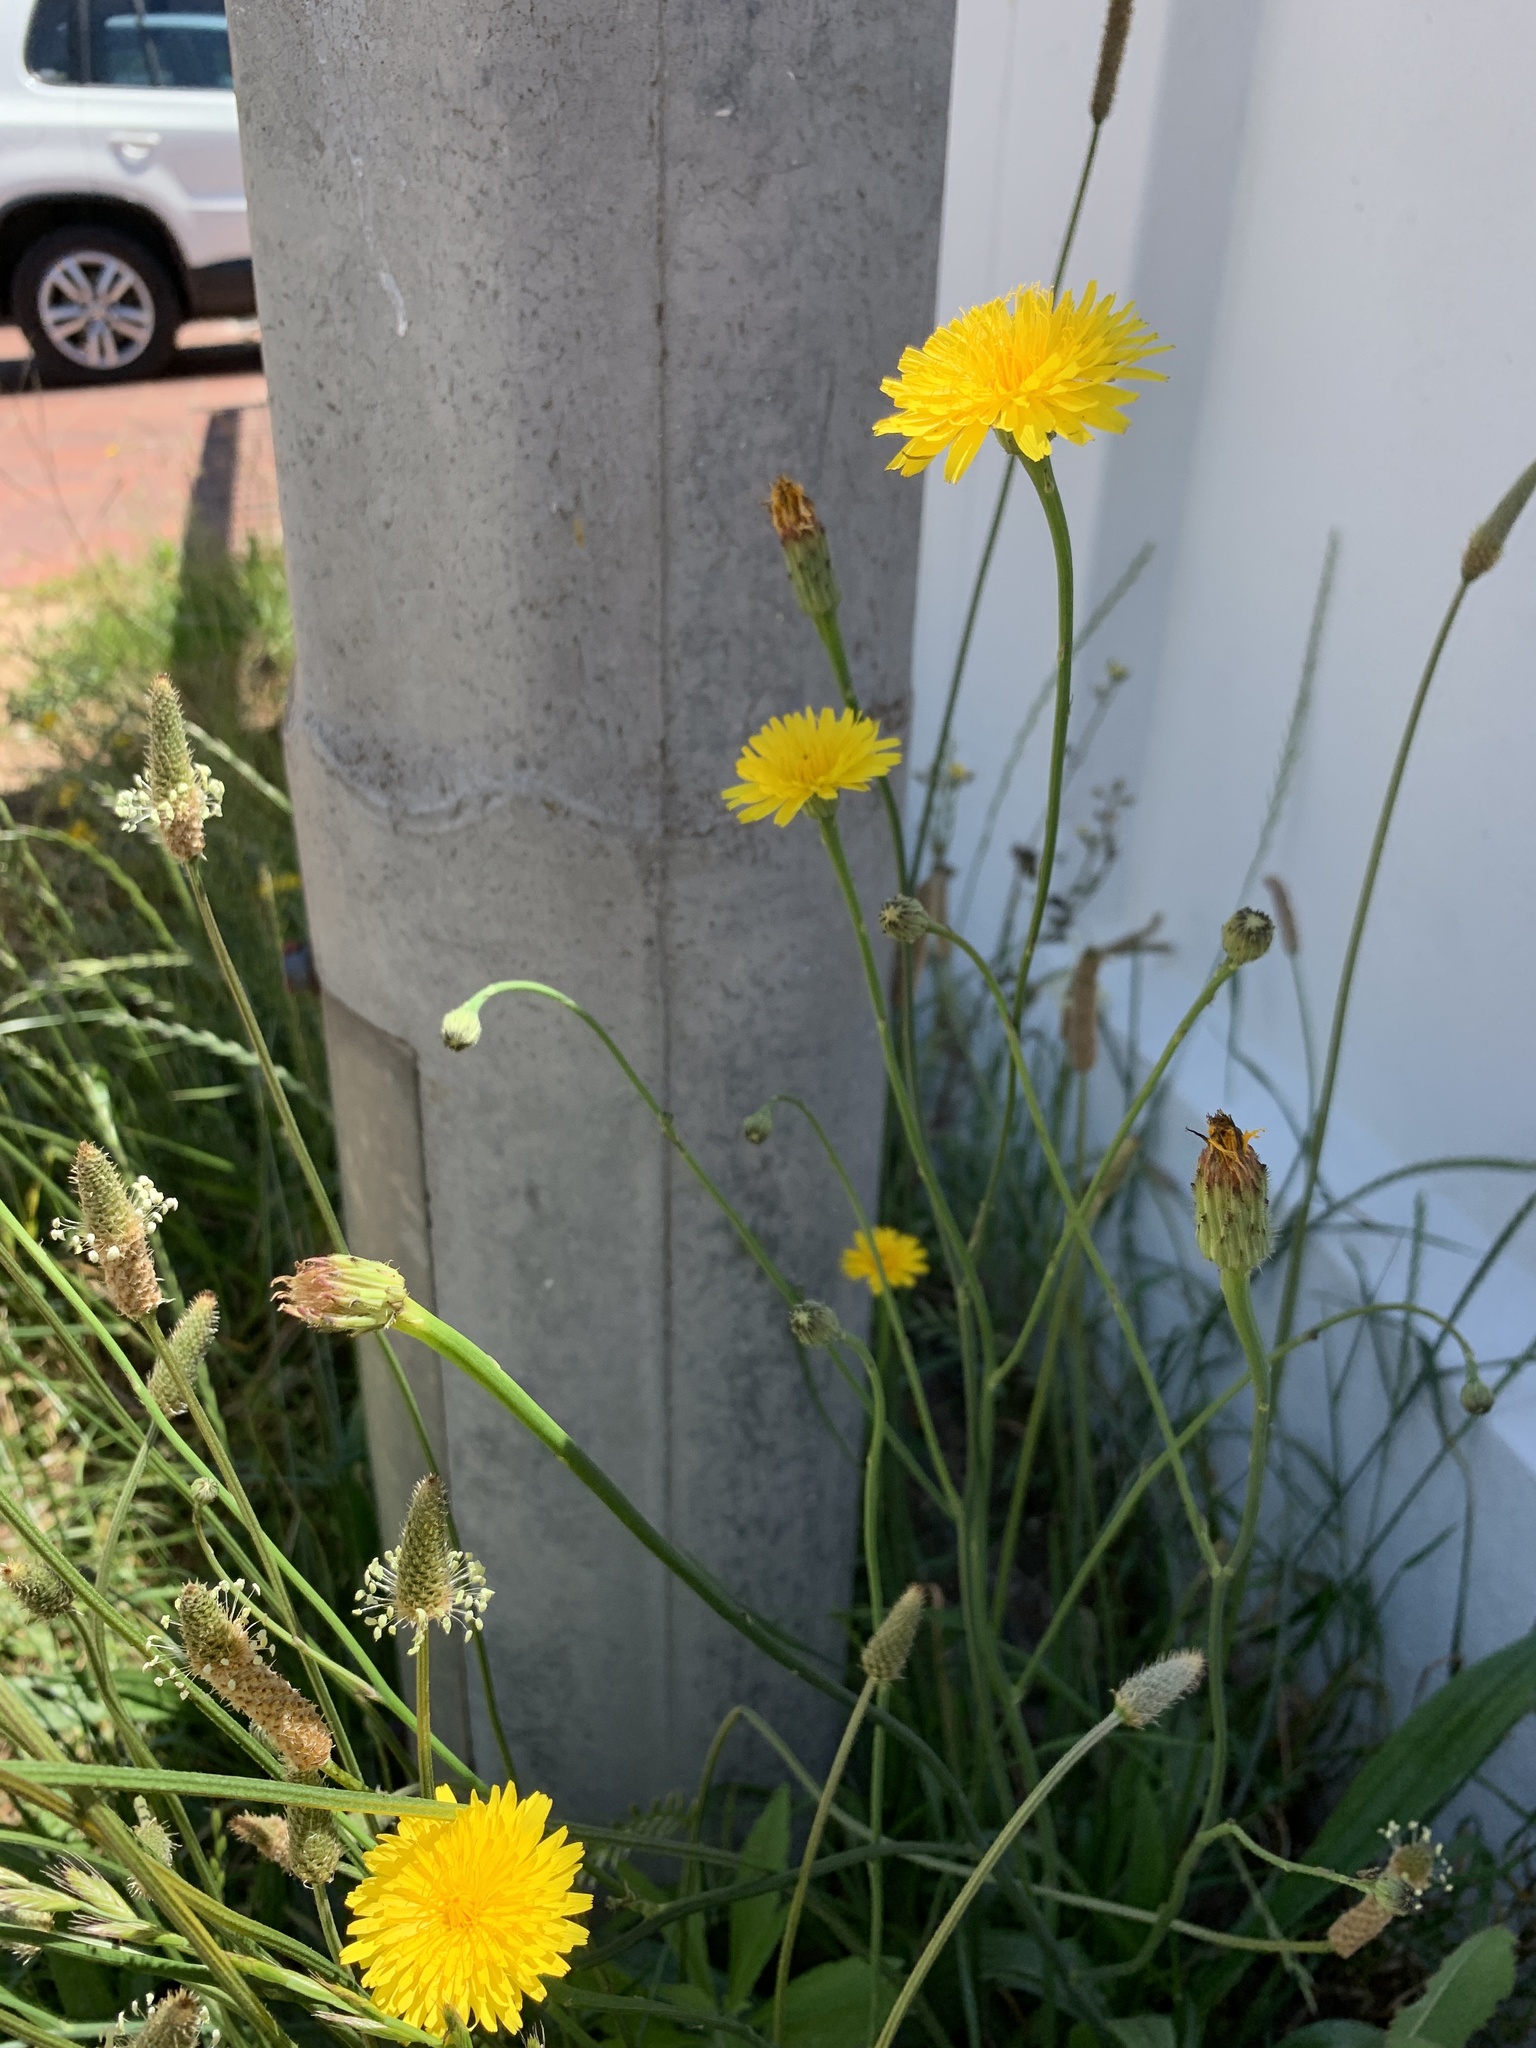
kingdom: Plantae
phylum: Tracheophyta
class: Magnoliopsida
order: Asterales
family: Asteraceae
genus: Hypochaeris
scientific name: Hypochaeris radicata
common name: Flatweed
